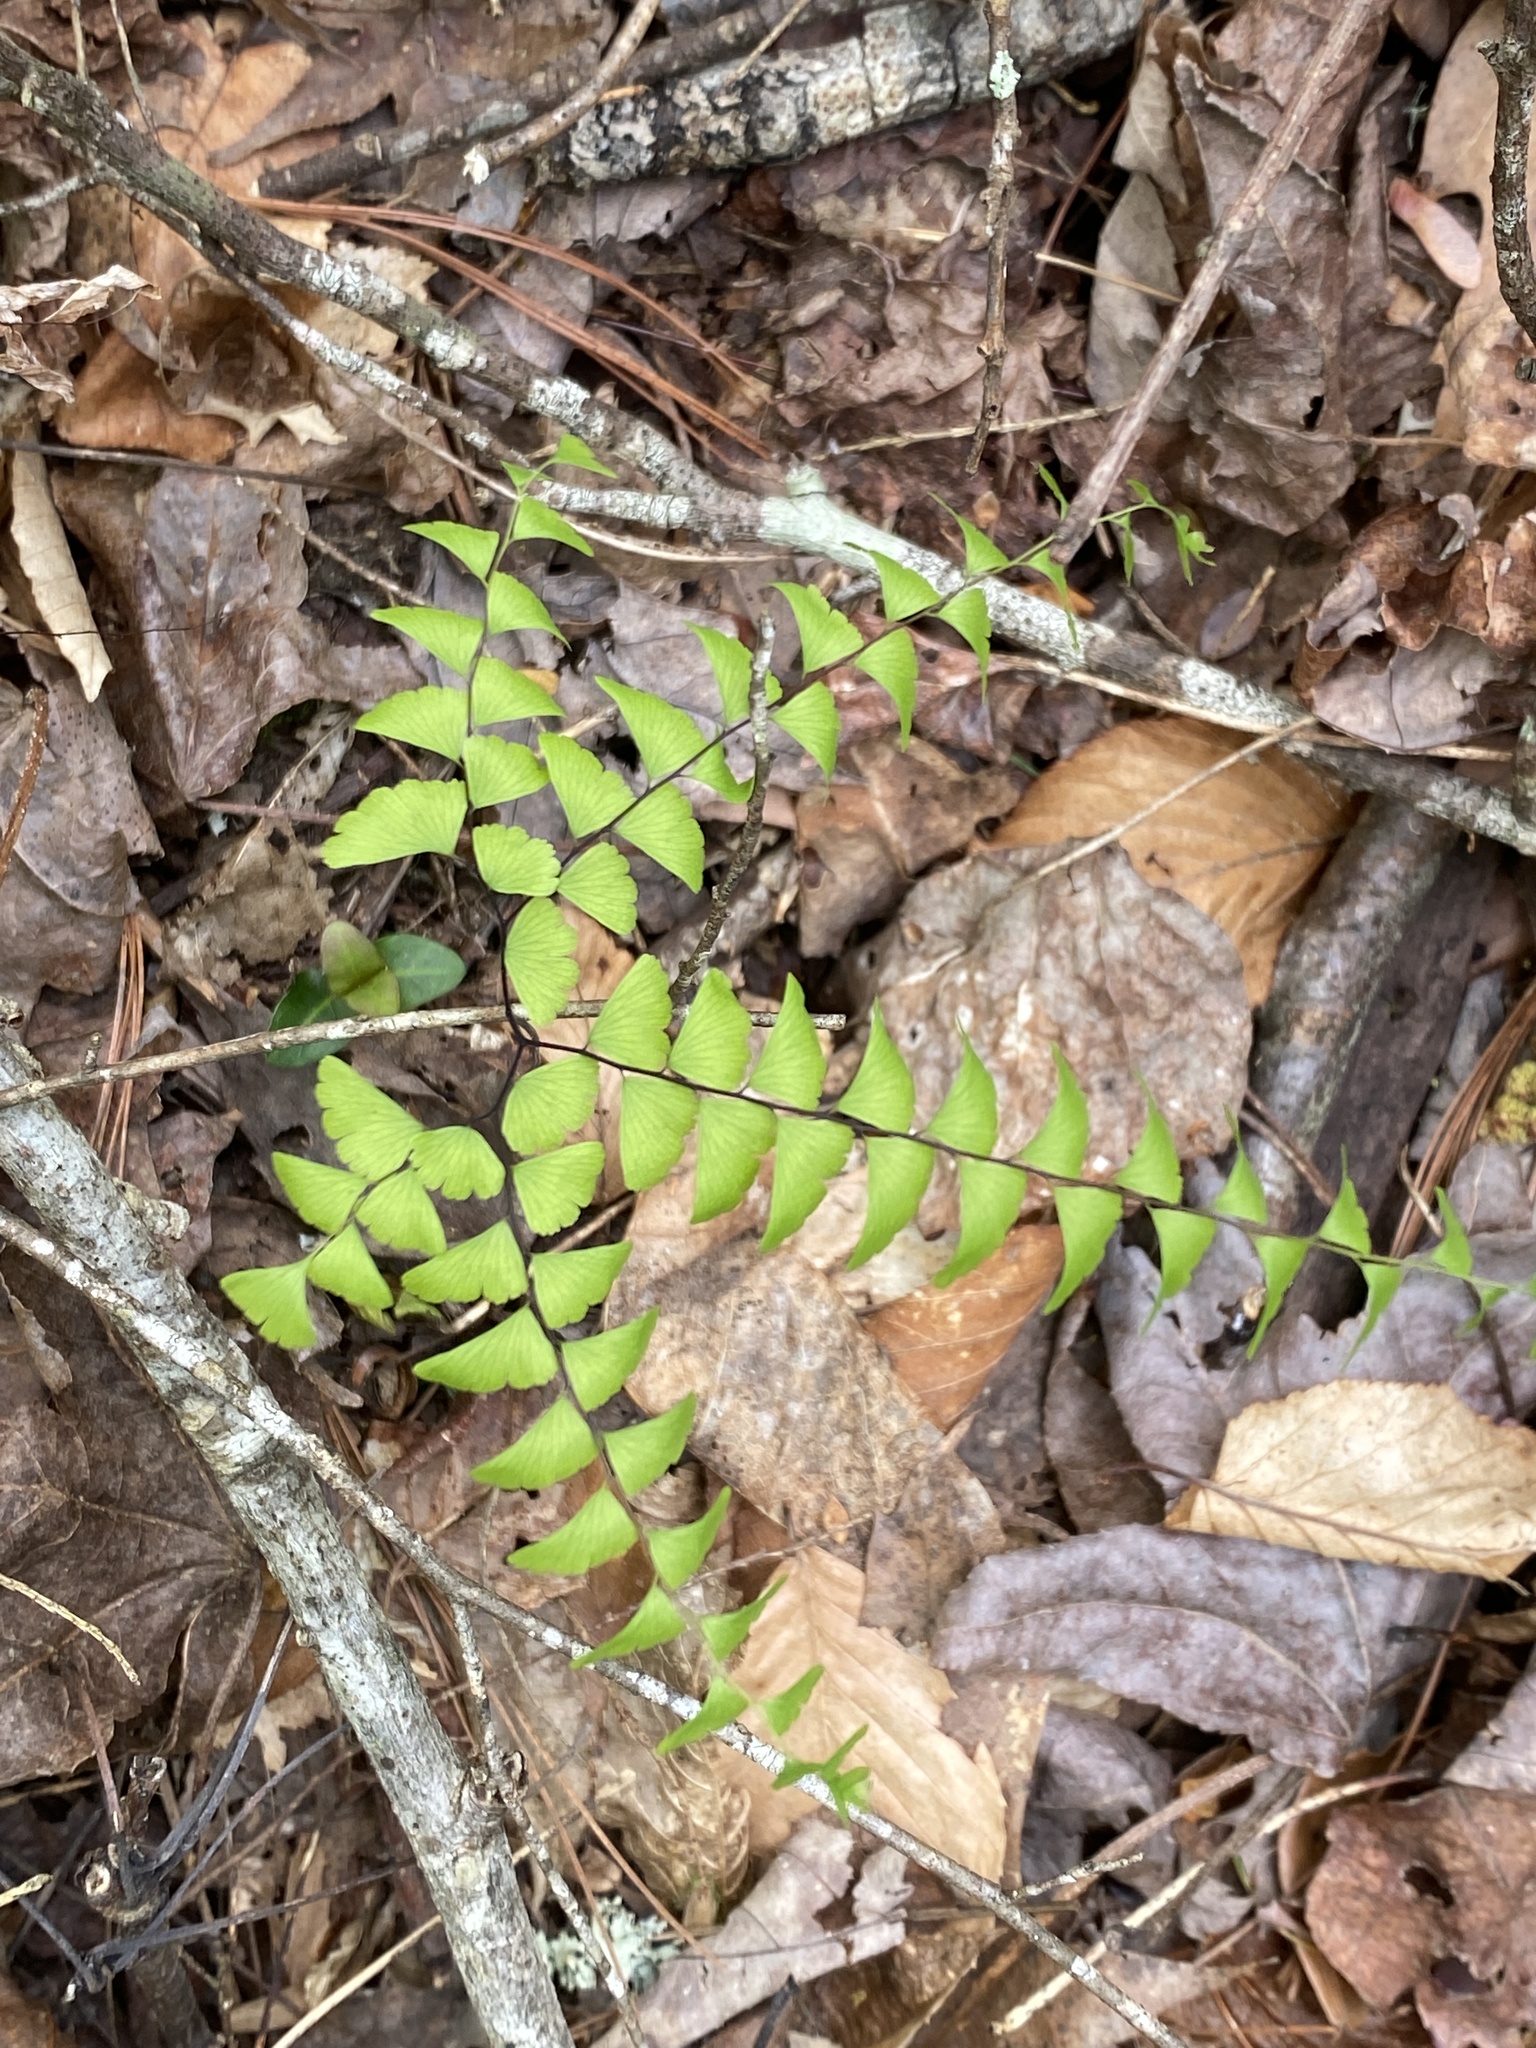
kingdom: Plantae
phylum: Tracheophyta
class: Polypodiopsida
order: Polypodiales
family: Pteridaceae
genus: Adiantum
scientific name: Adiantum pedatum
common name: Five-finger fern
